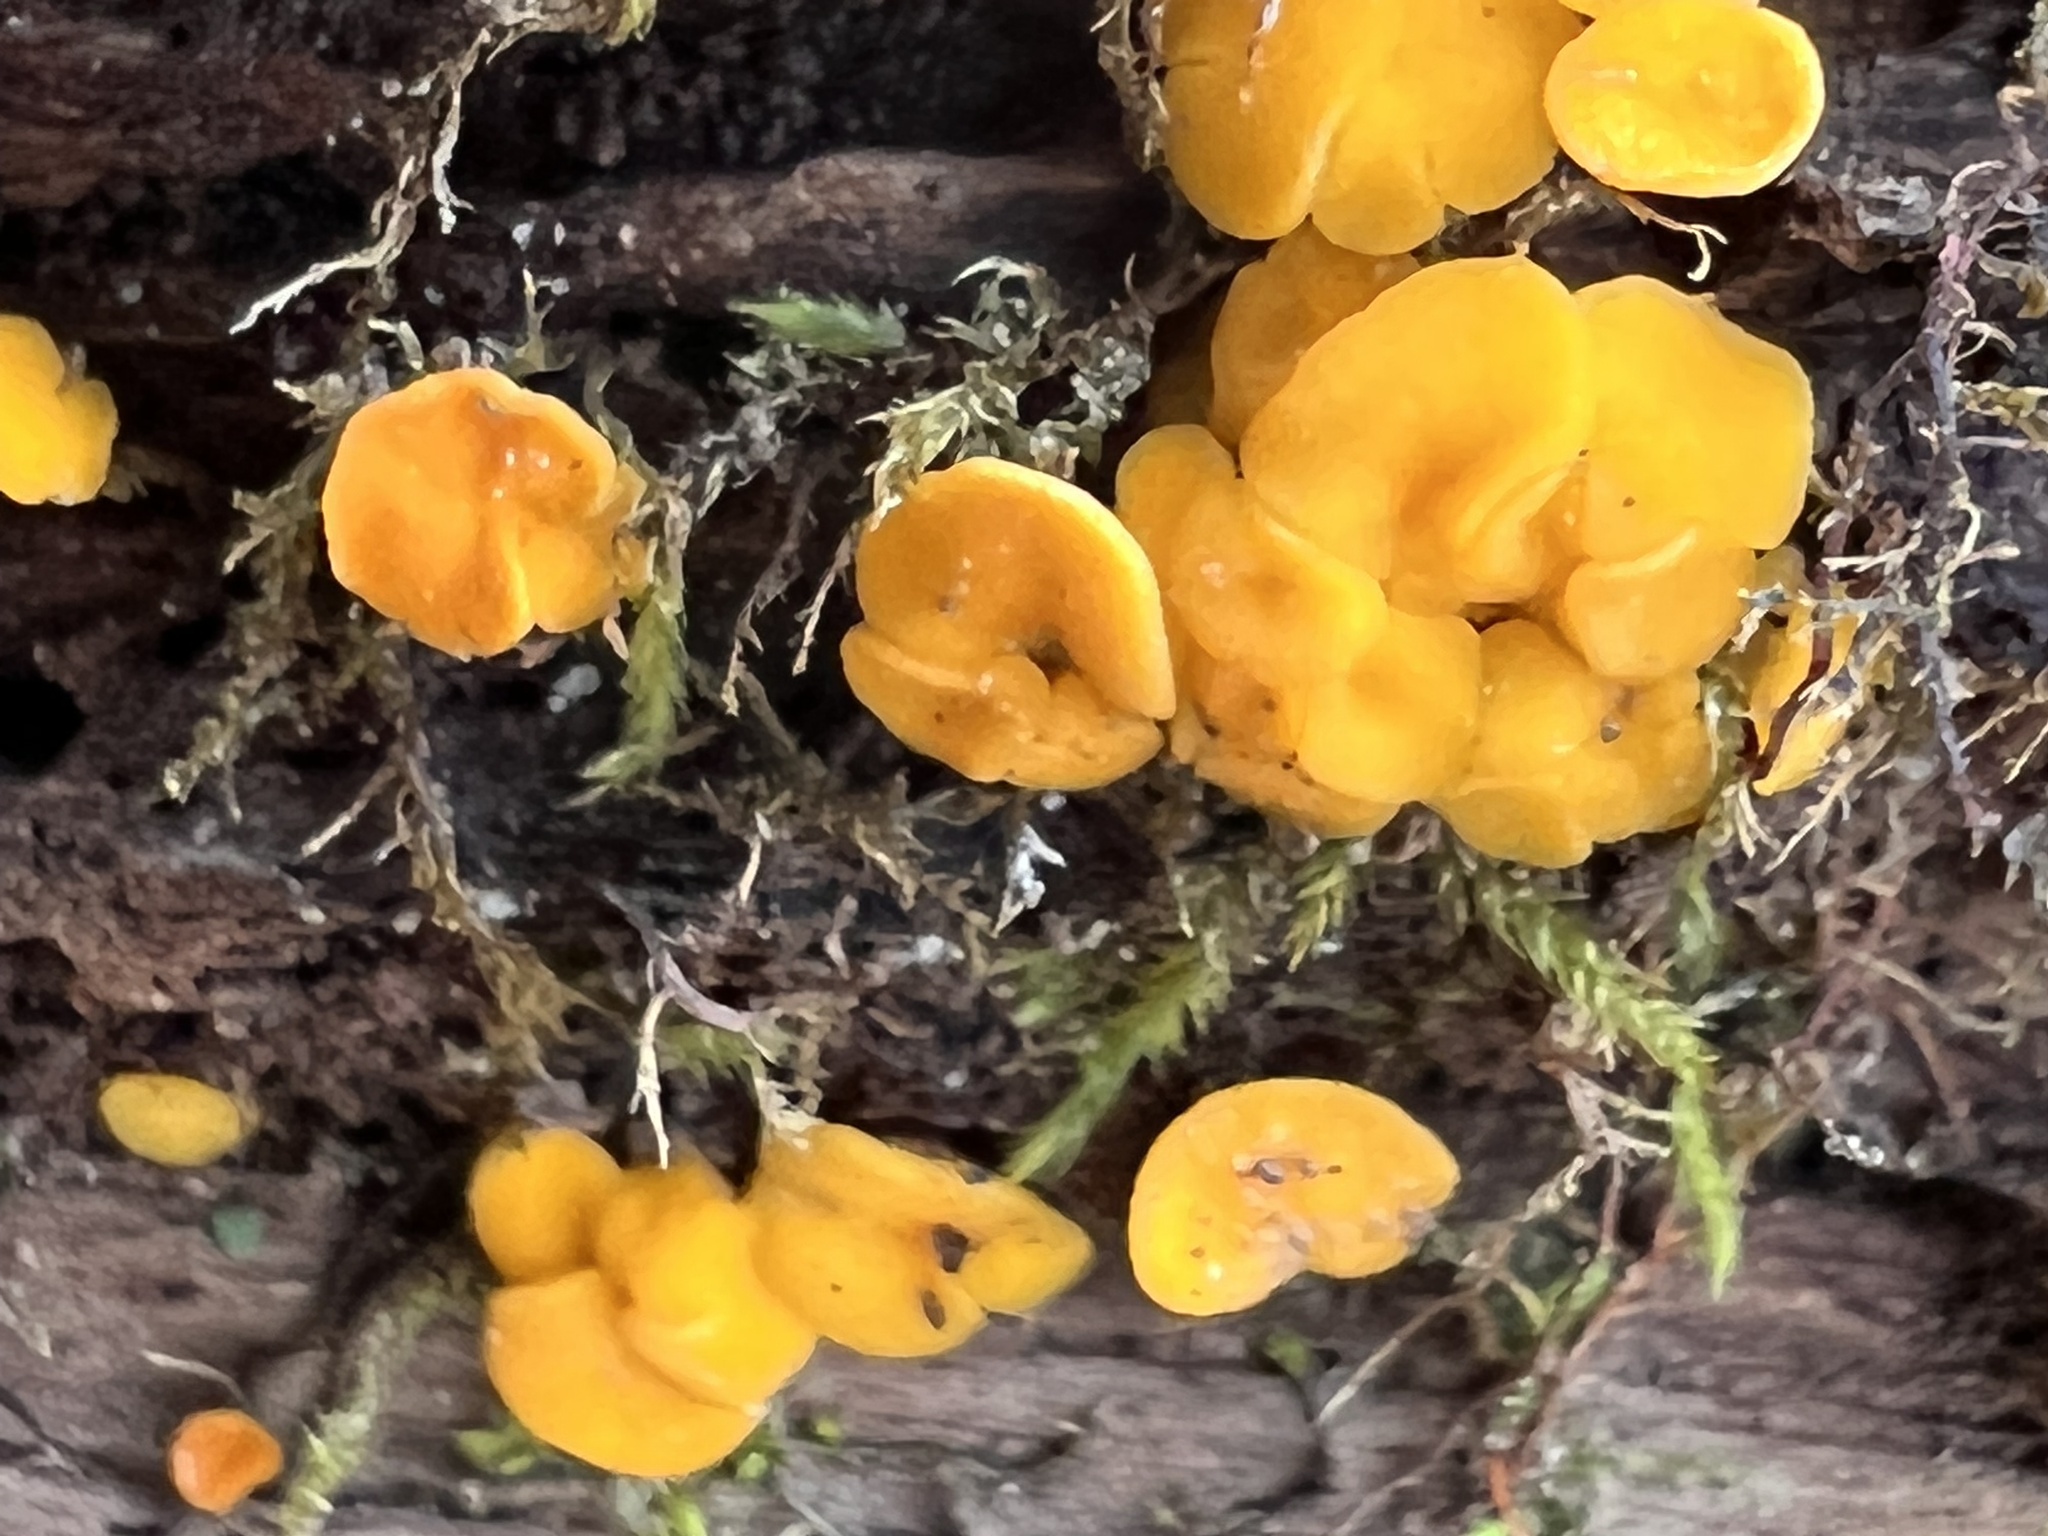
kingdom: Fungi
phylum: Ascomycota
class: Leotiomycetes
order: Helotiales
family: Pezizellaceae
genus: Calycina
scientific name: Calycina citrina
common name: Yellow fairy cups
